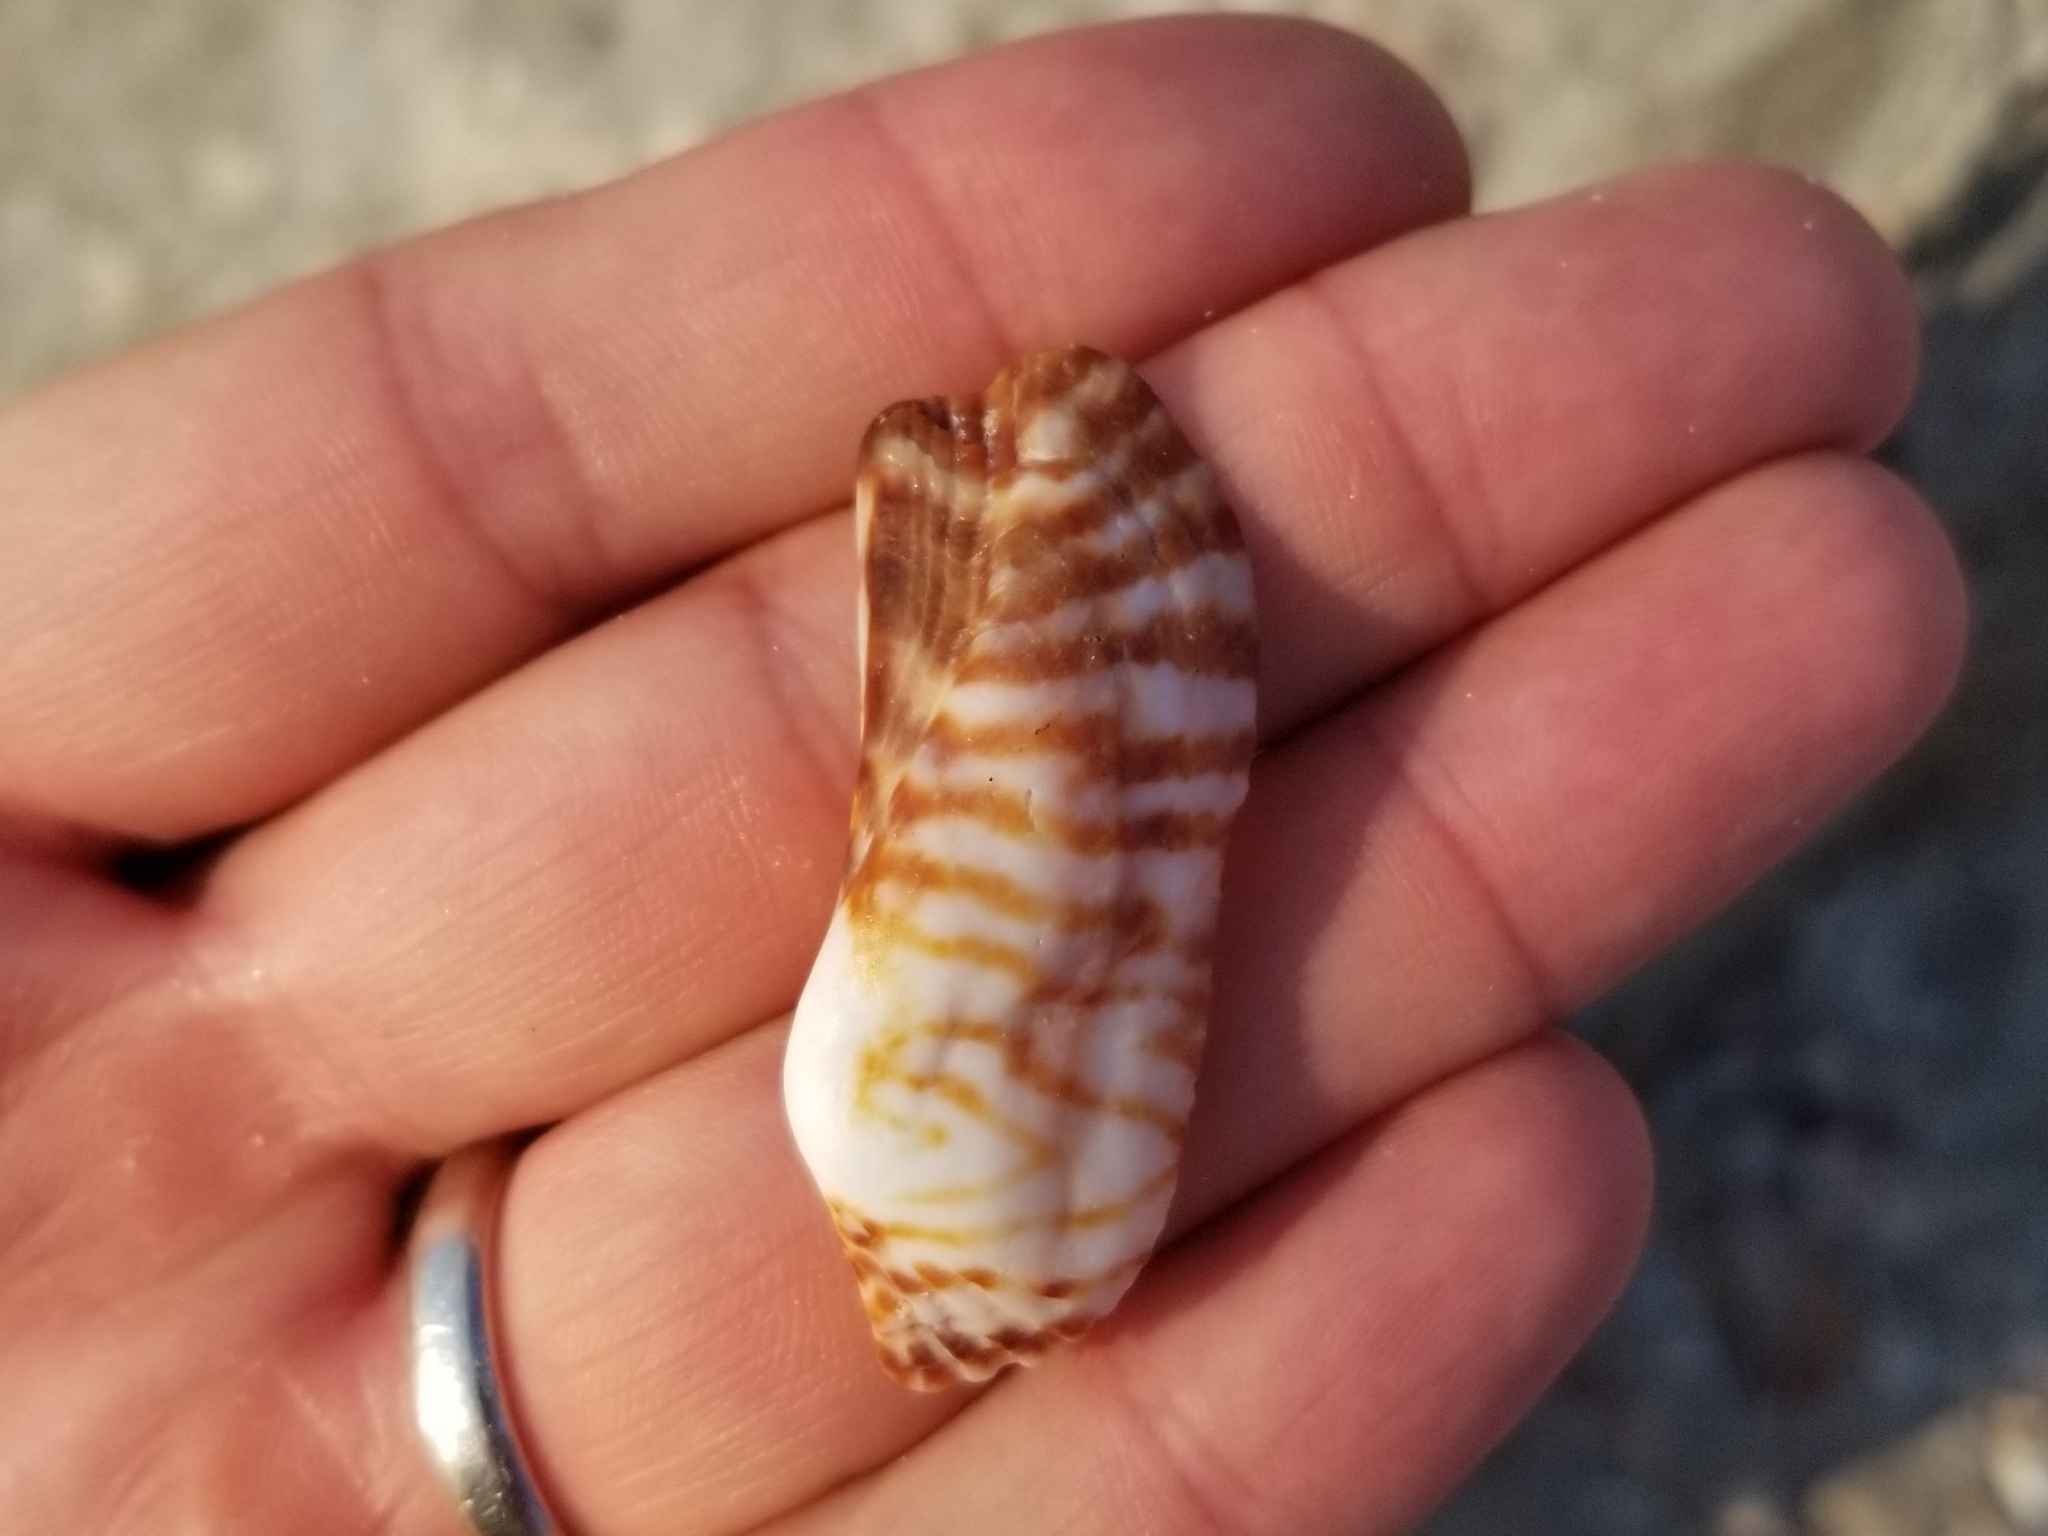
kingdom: Animalia
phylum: Mollusca
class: Bivalvia
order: Arcida
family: Arcidae
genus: Arca
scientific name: Arca zebra
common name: Atlantic turkey wing
